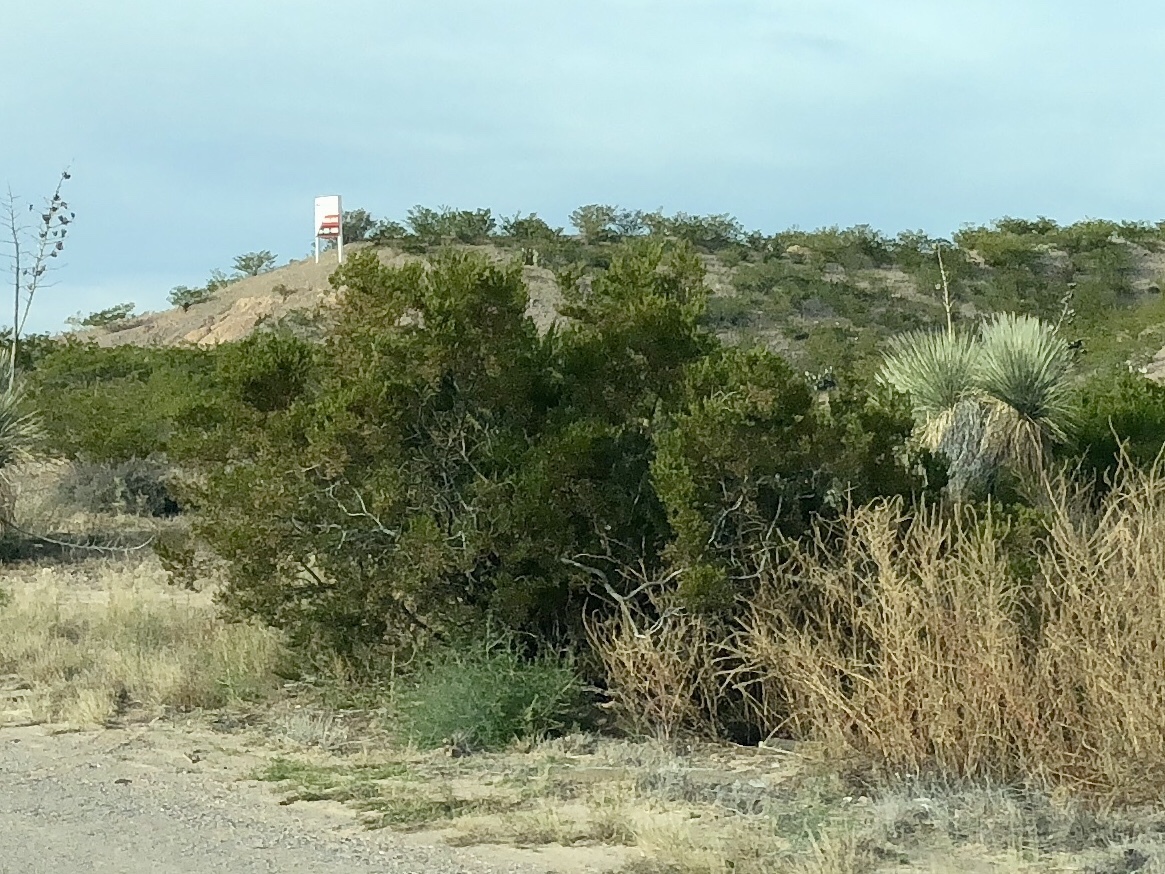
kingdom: Plantae
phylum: Tracheophyta
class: Magnoliopsida
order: Zygophyllales
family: Zygophyllaceae
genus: Larrea
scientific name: Larrea tridentata
